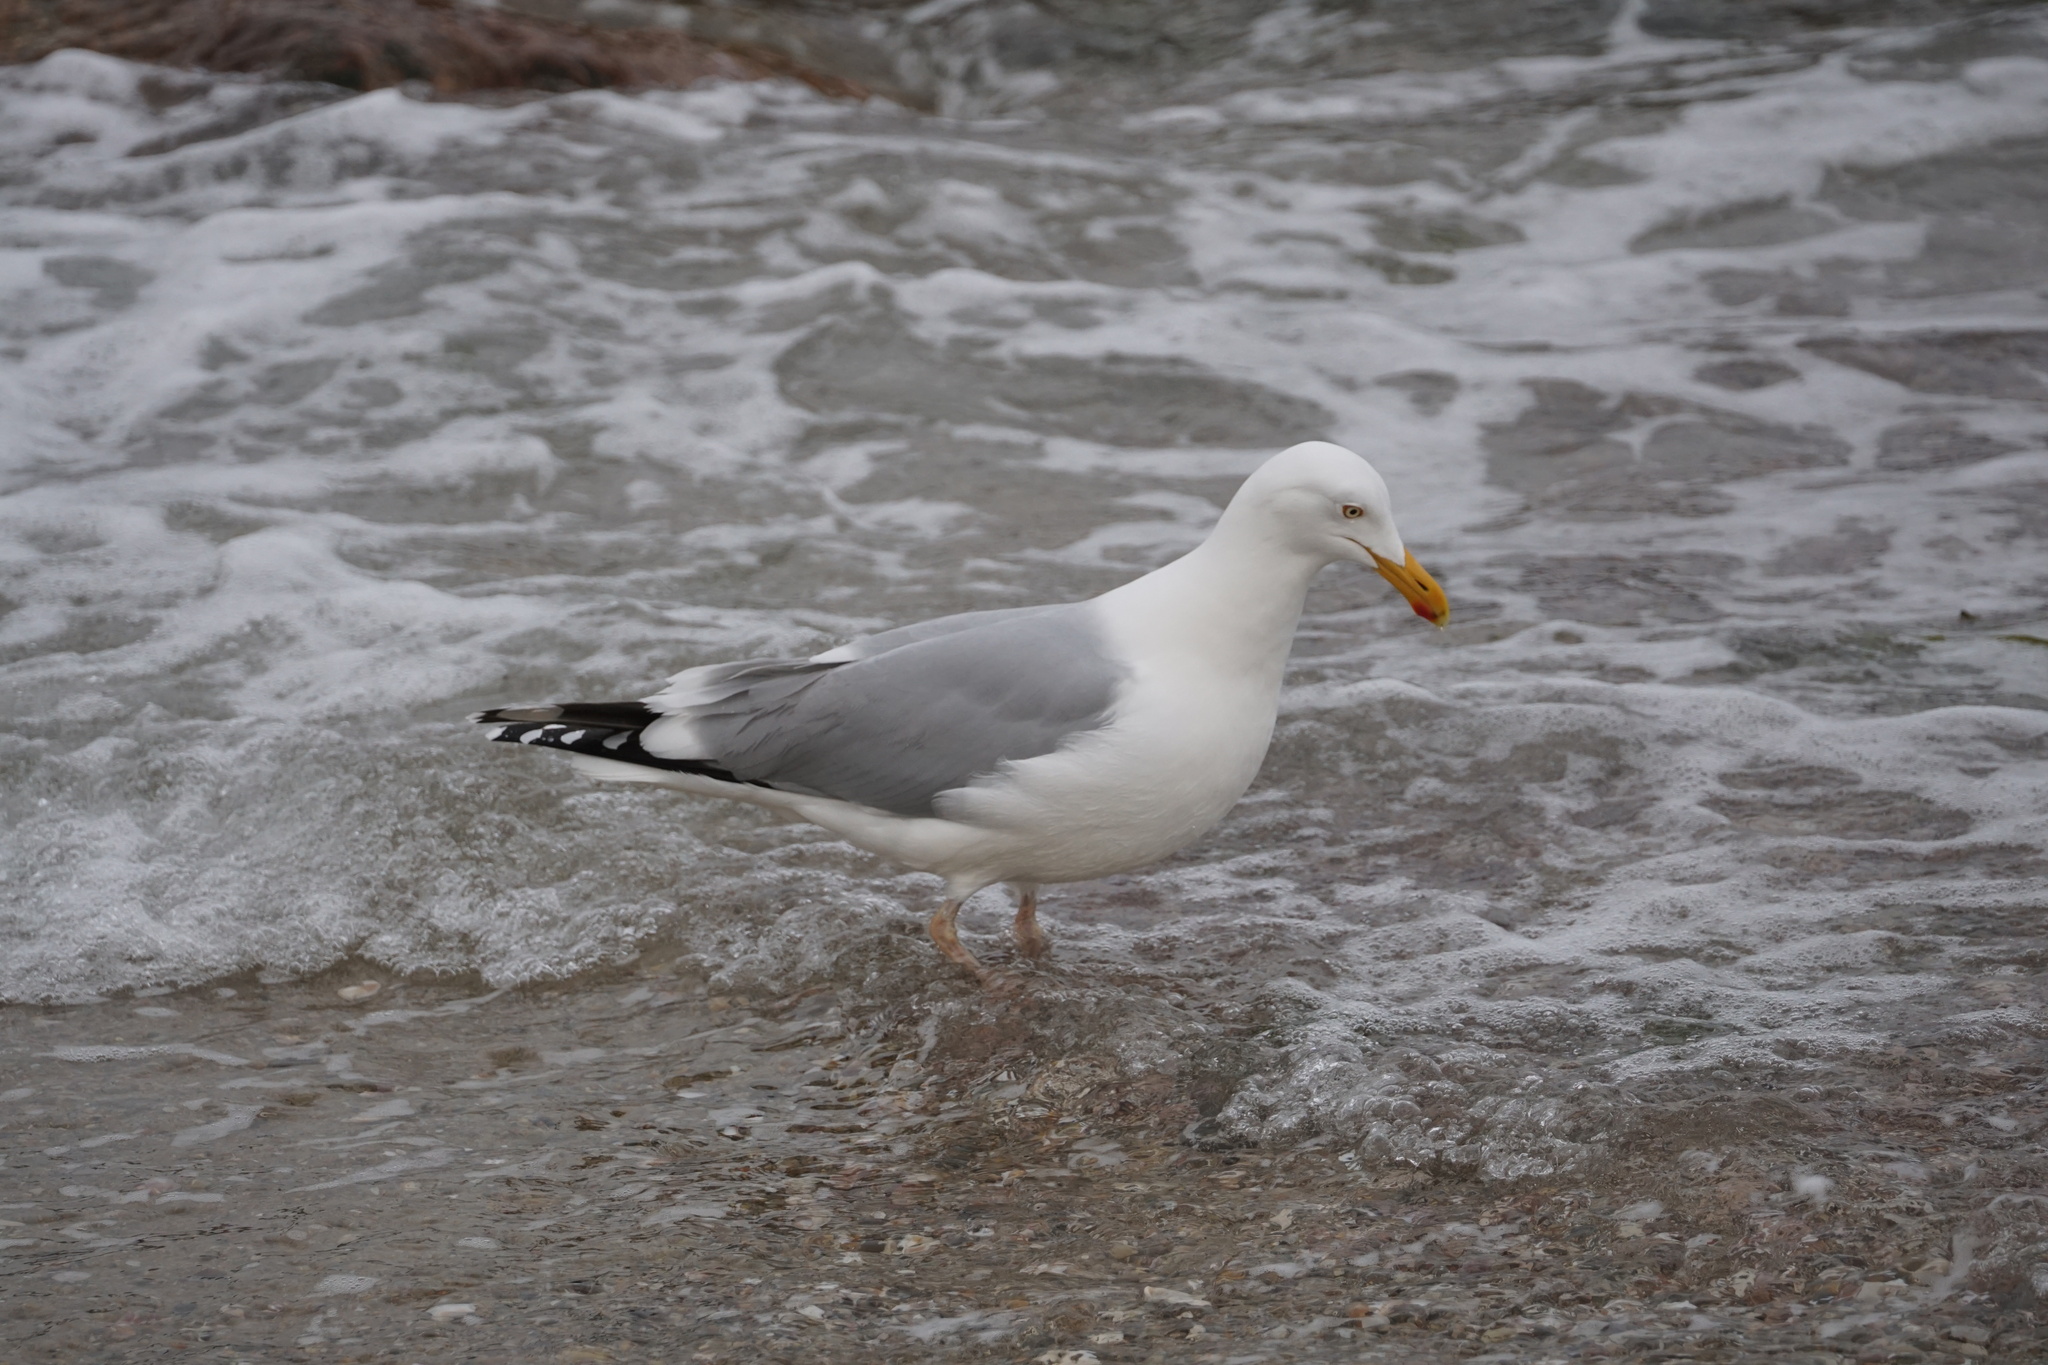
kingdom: Animalia
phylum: Chordata
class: Aves
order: Charadriiformes
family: Laridae
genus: Larus
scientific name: Larus argentatus
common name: Herring gull
